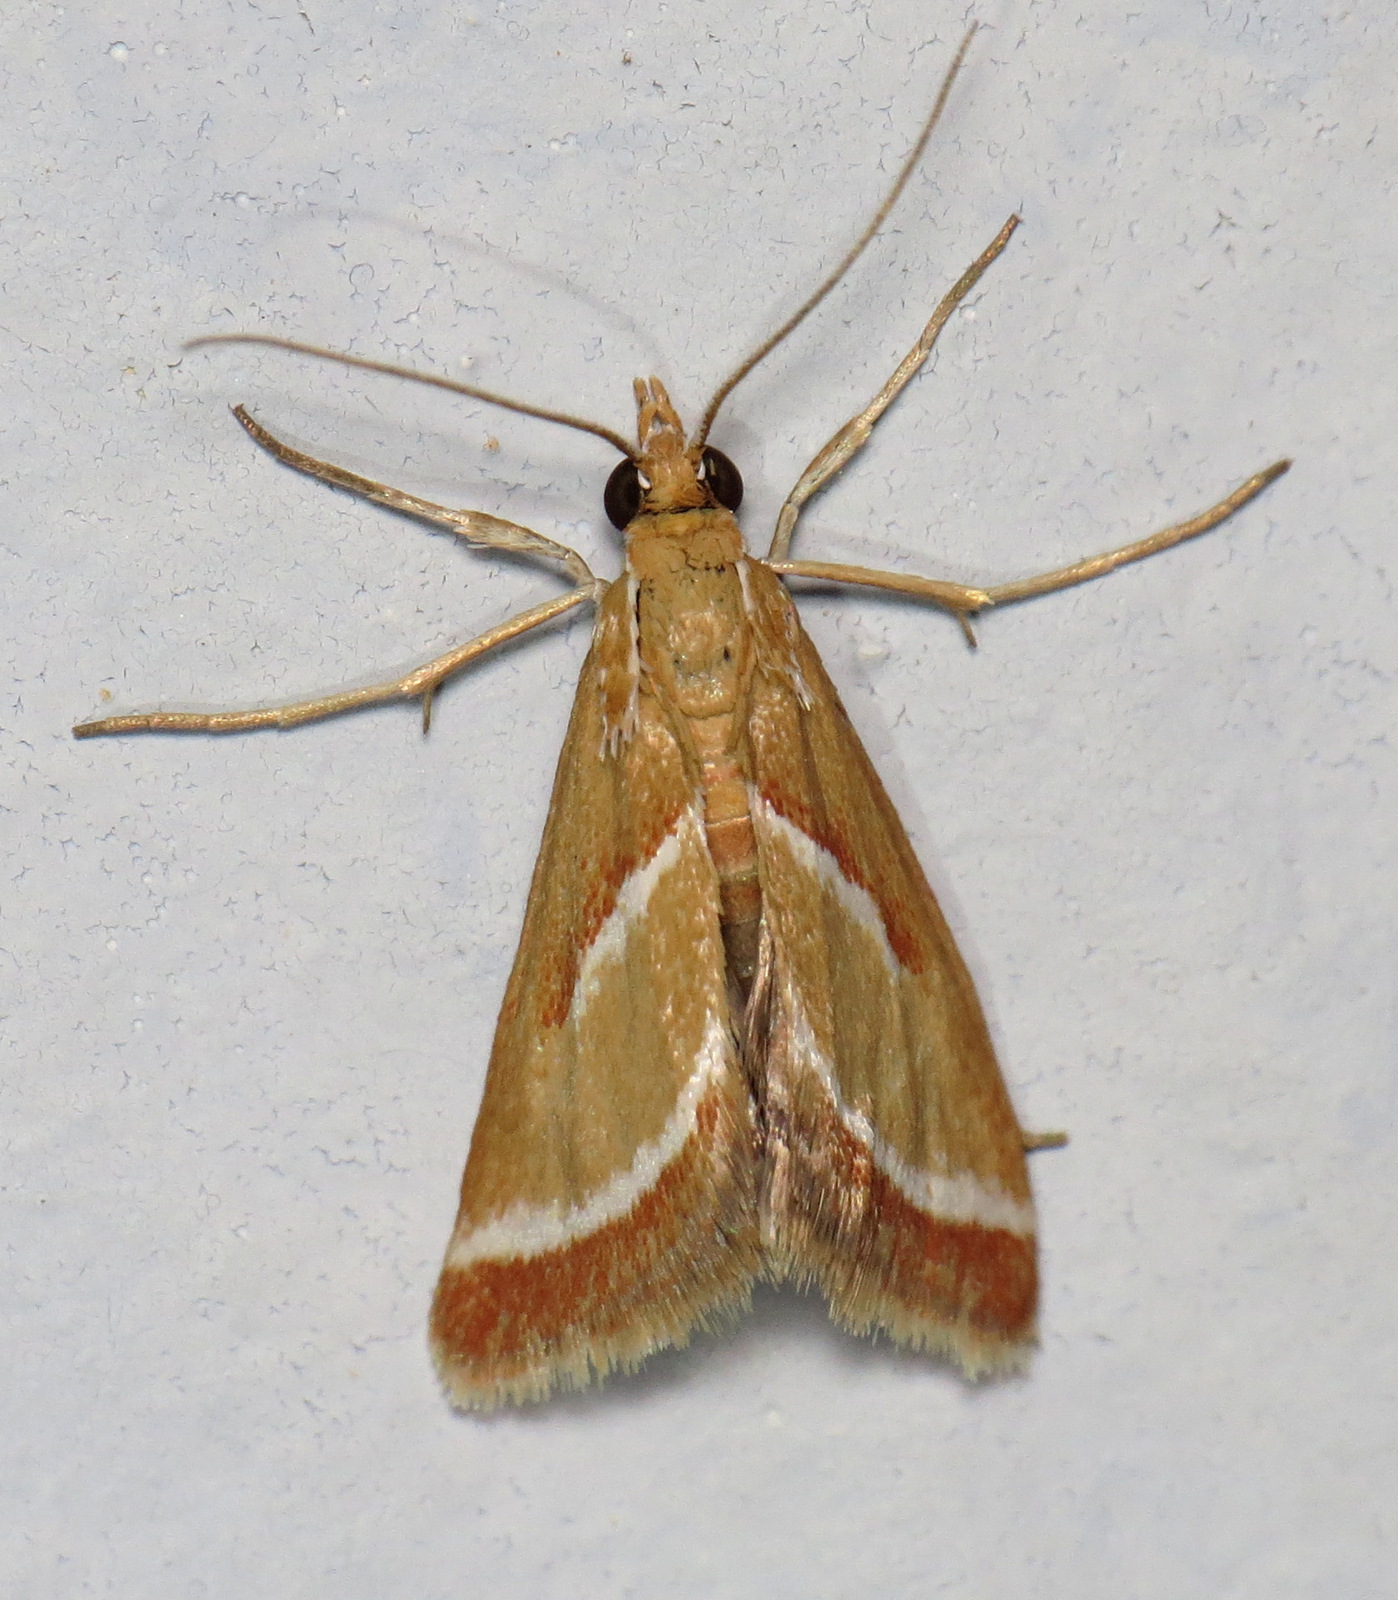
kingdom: Animalia
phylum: Arthropoda
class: Insecta
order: Lepidoptera
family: Crambidae
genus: Rhodocantha
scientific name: Rhodocantha diagonalis
